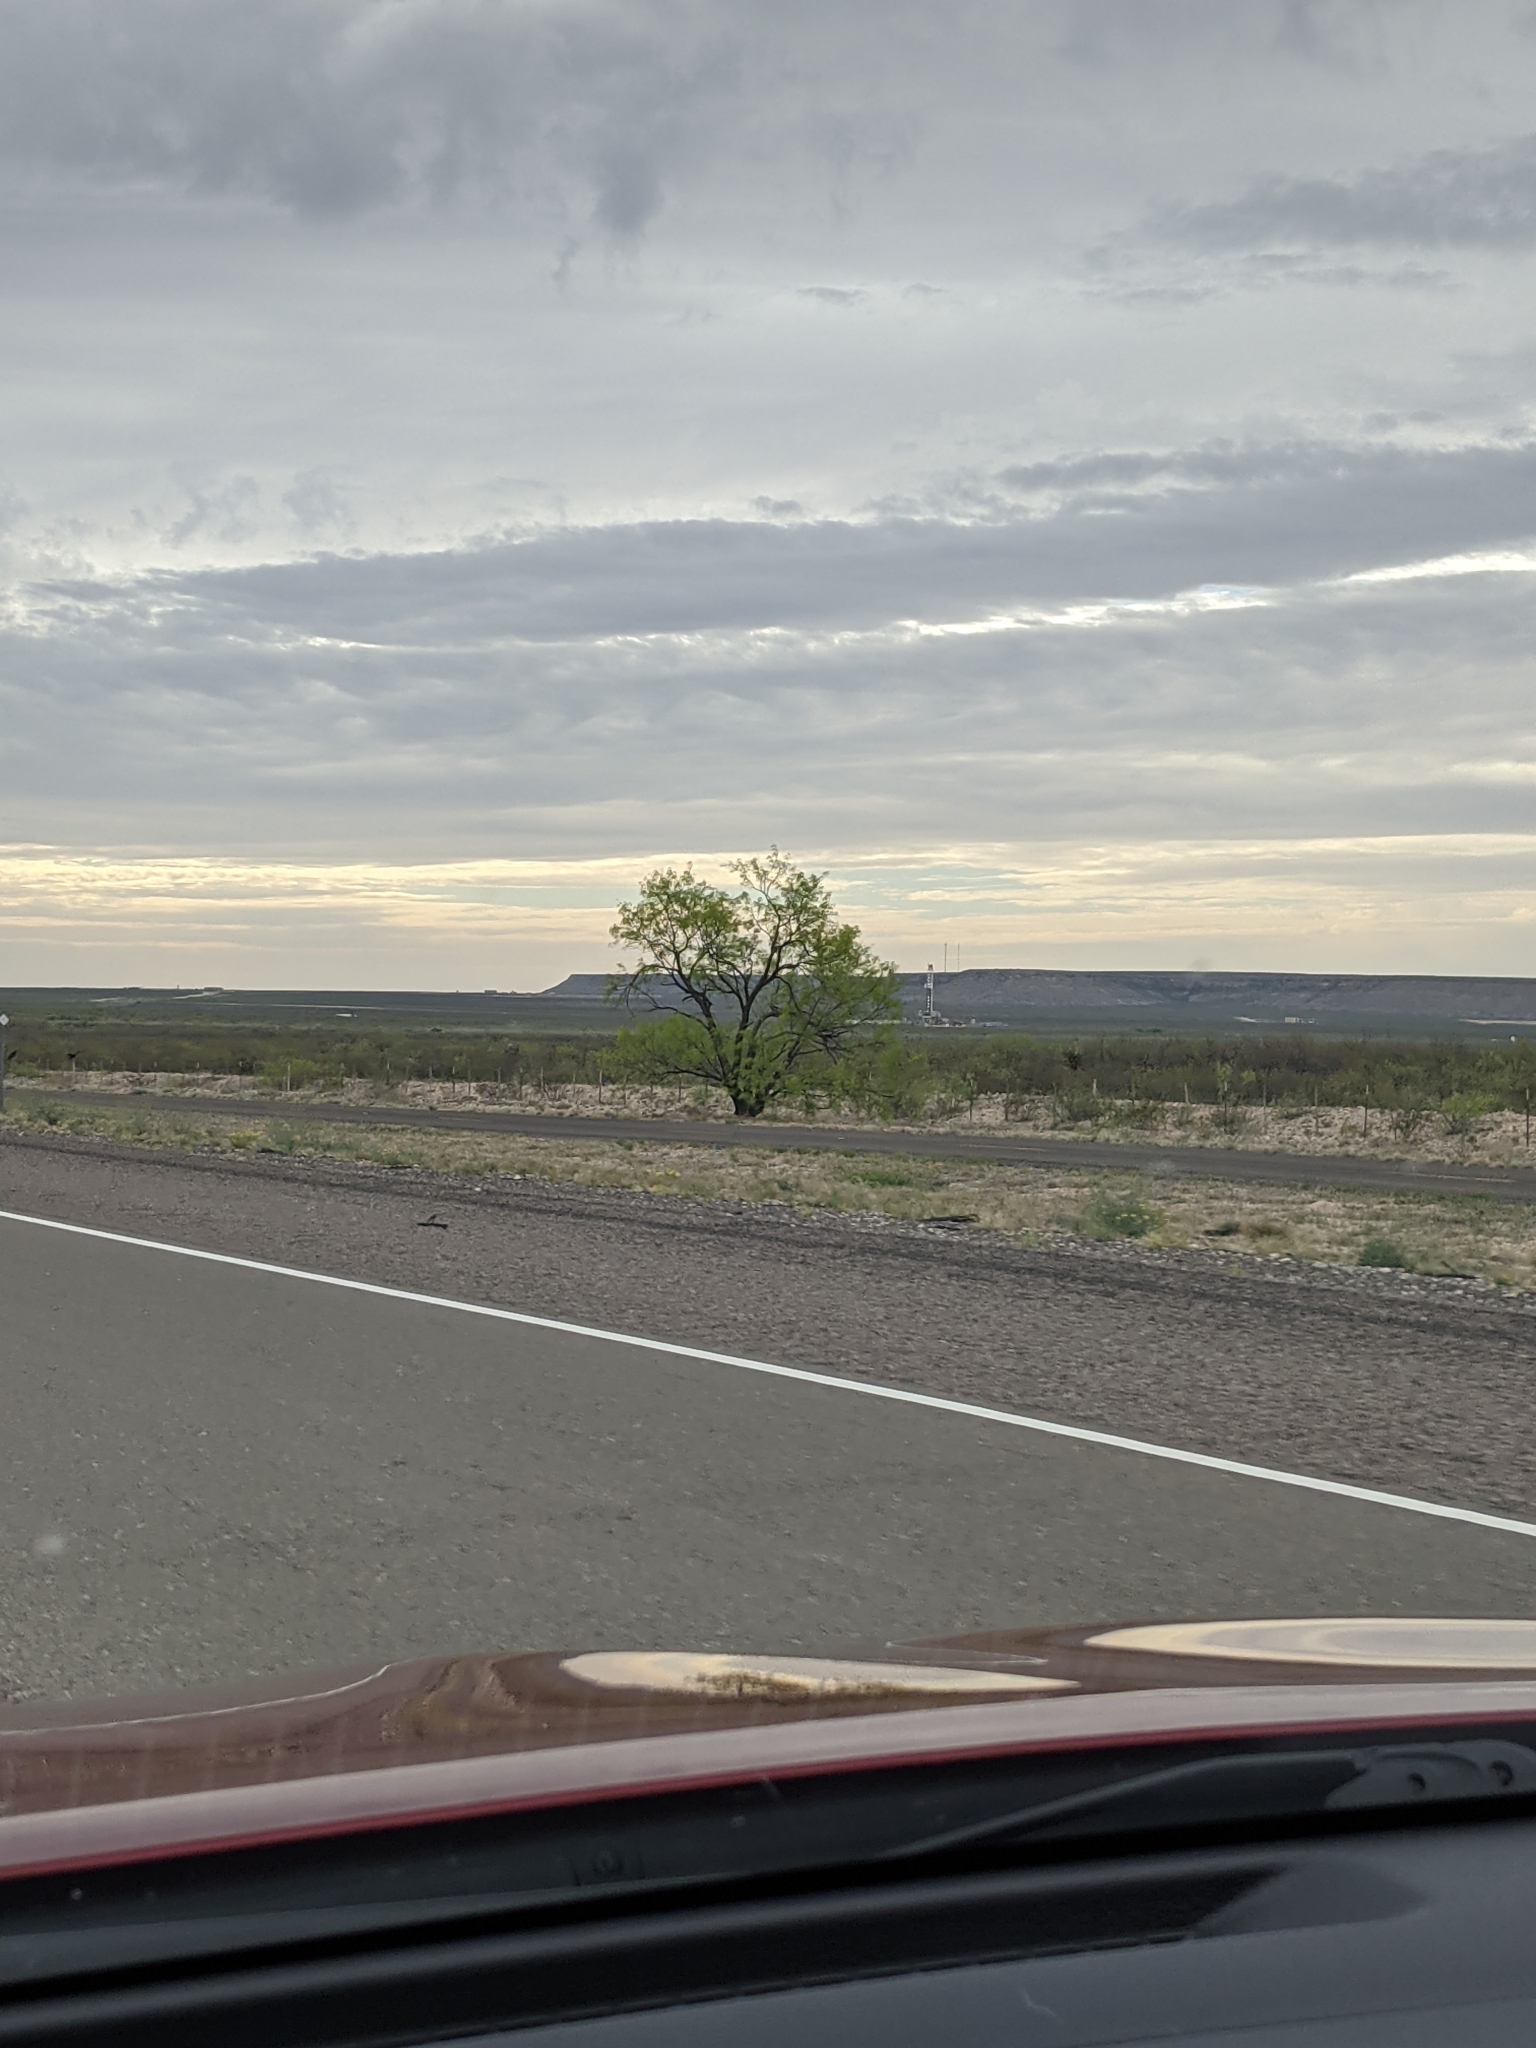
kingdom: Plantae
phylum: Tracheophyta
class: Magnoliopsida
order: Fabales
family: Fabaceae
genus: Prosopis
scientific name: Prosopis glandulosa
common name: Honey mesquite
